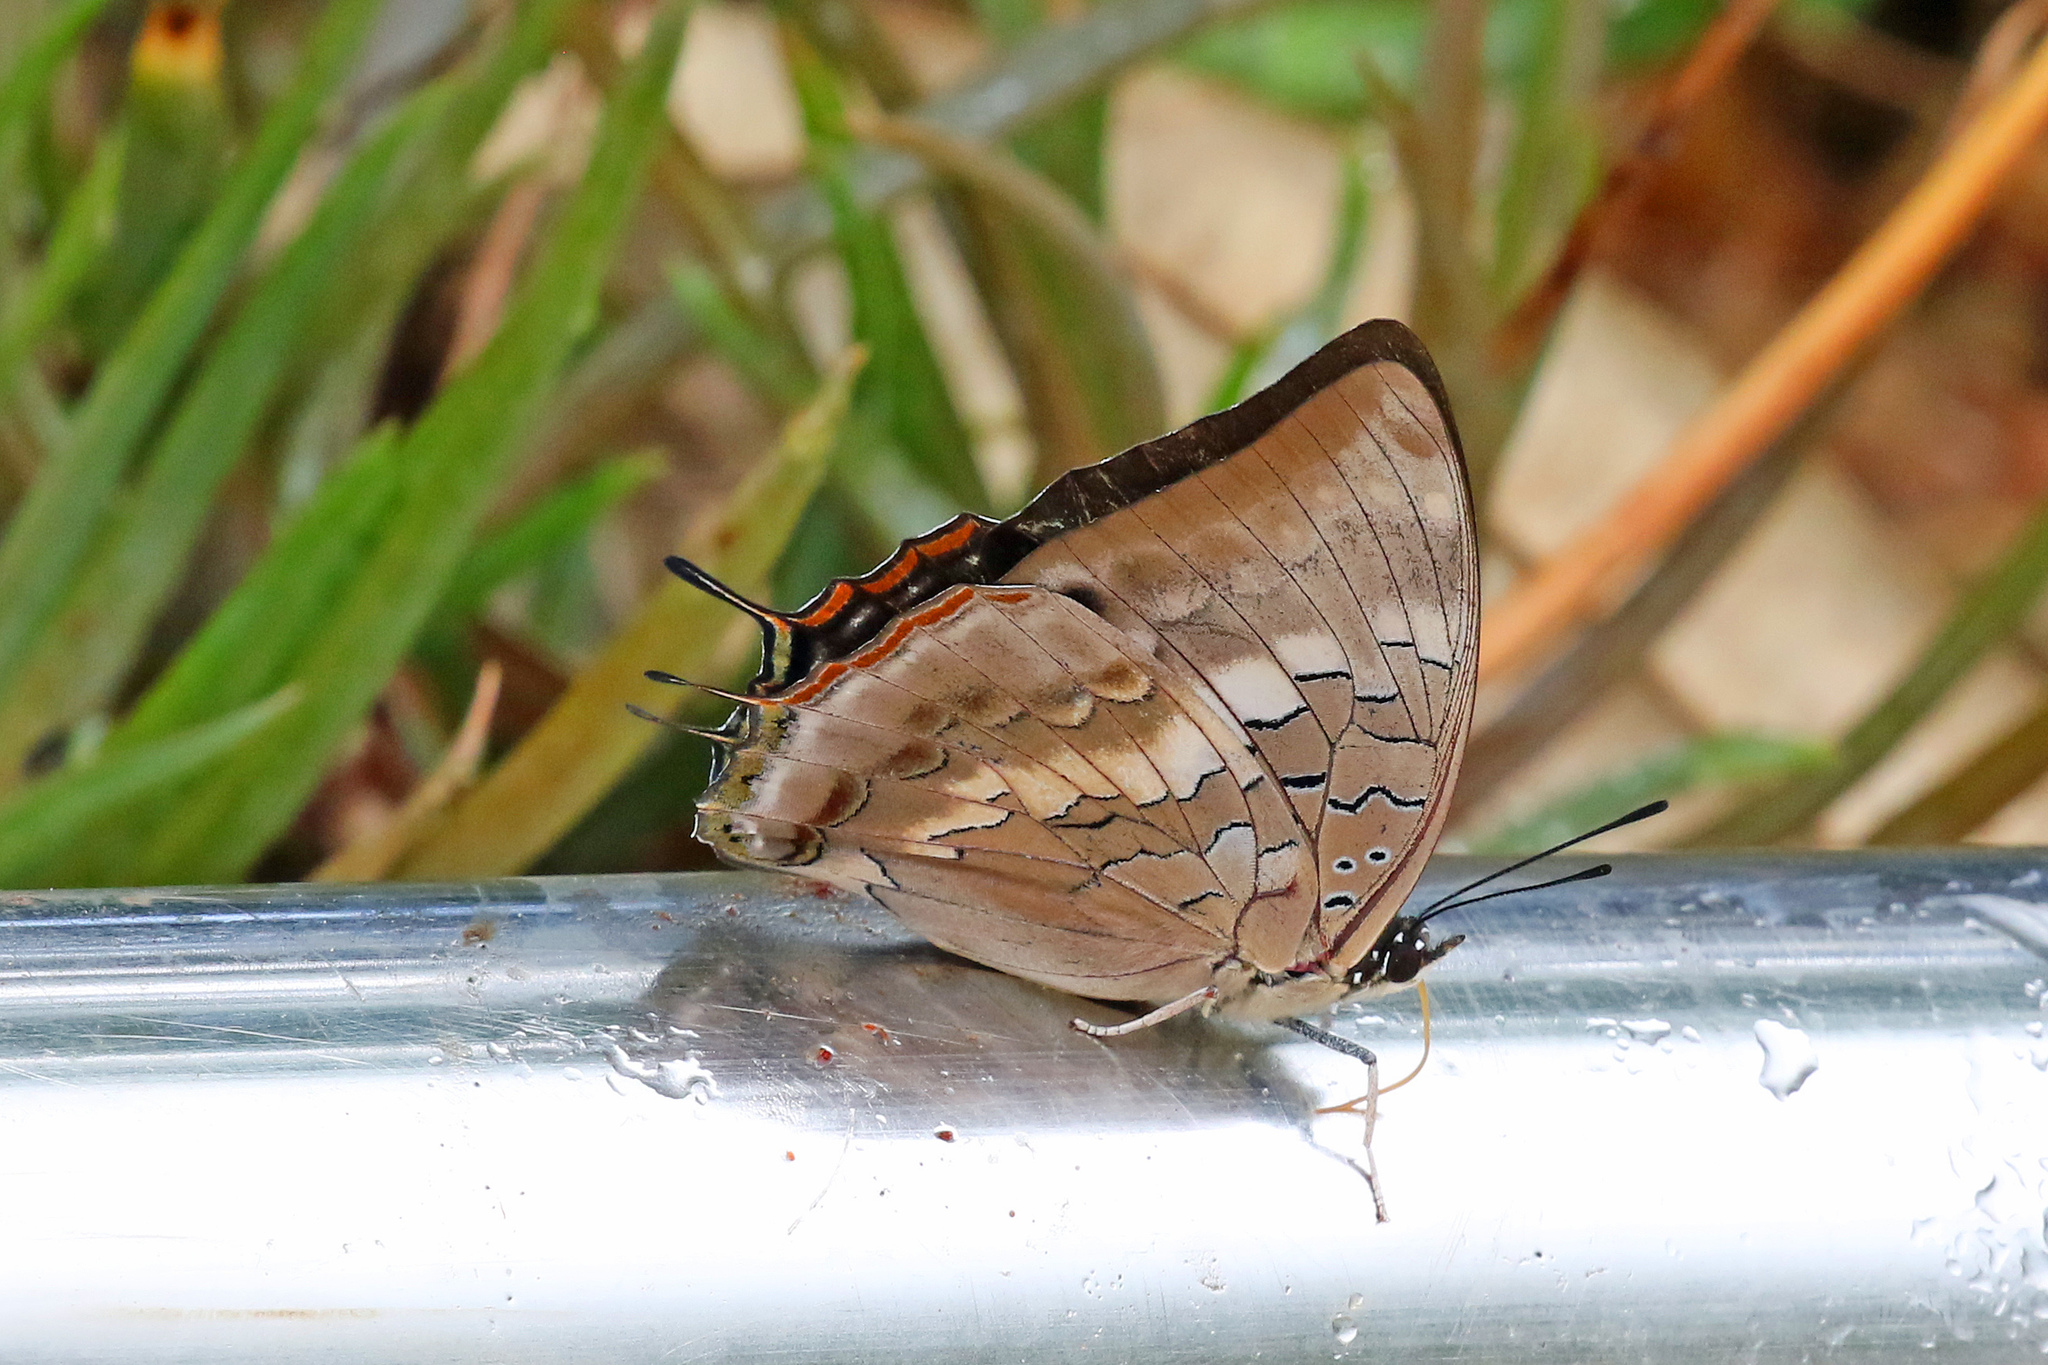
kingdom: Animalia
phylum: Arthropoda
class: Insecta
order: Lepidoptera
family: Nymphalidae
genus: Charaxes
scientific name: Charaxes ethalion
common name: Satyr charaxes
